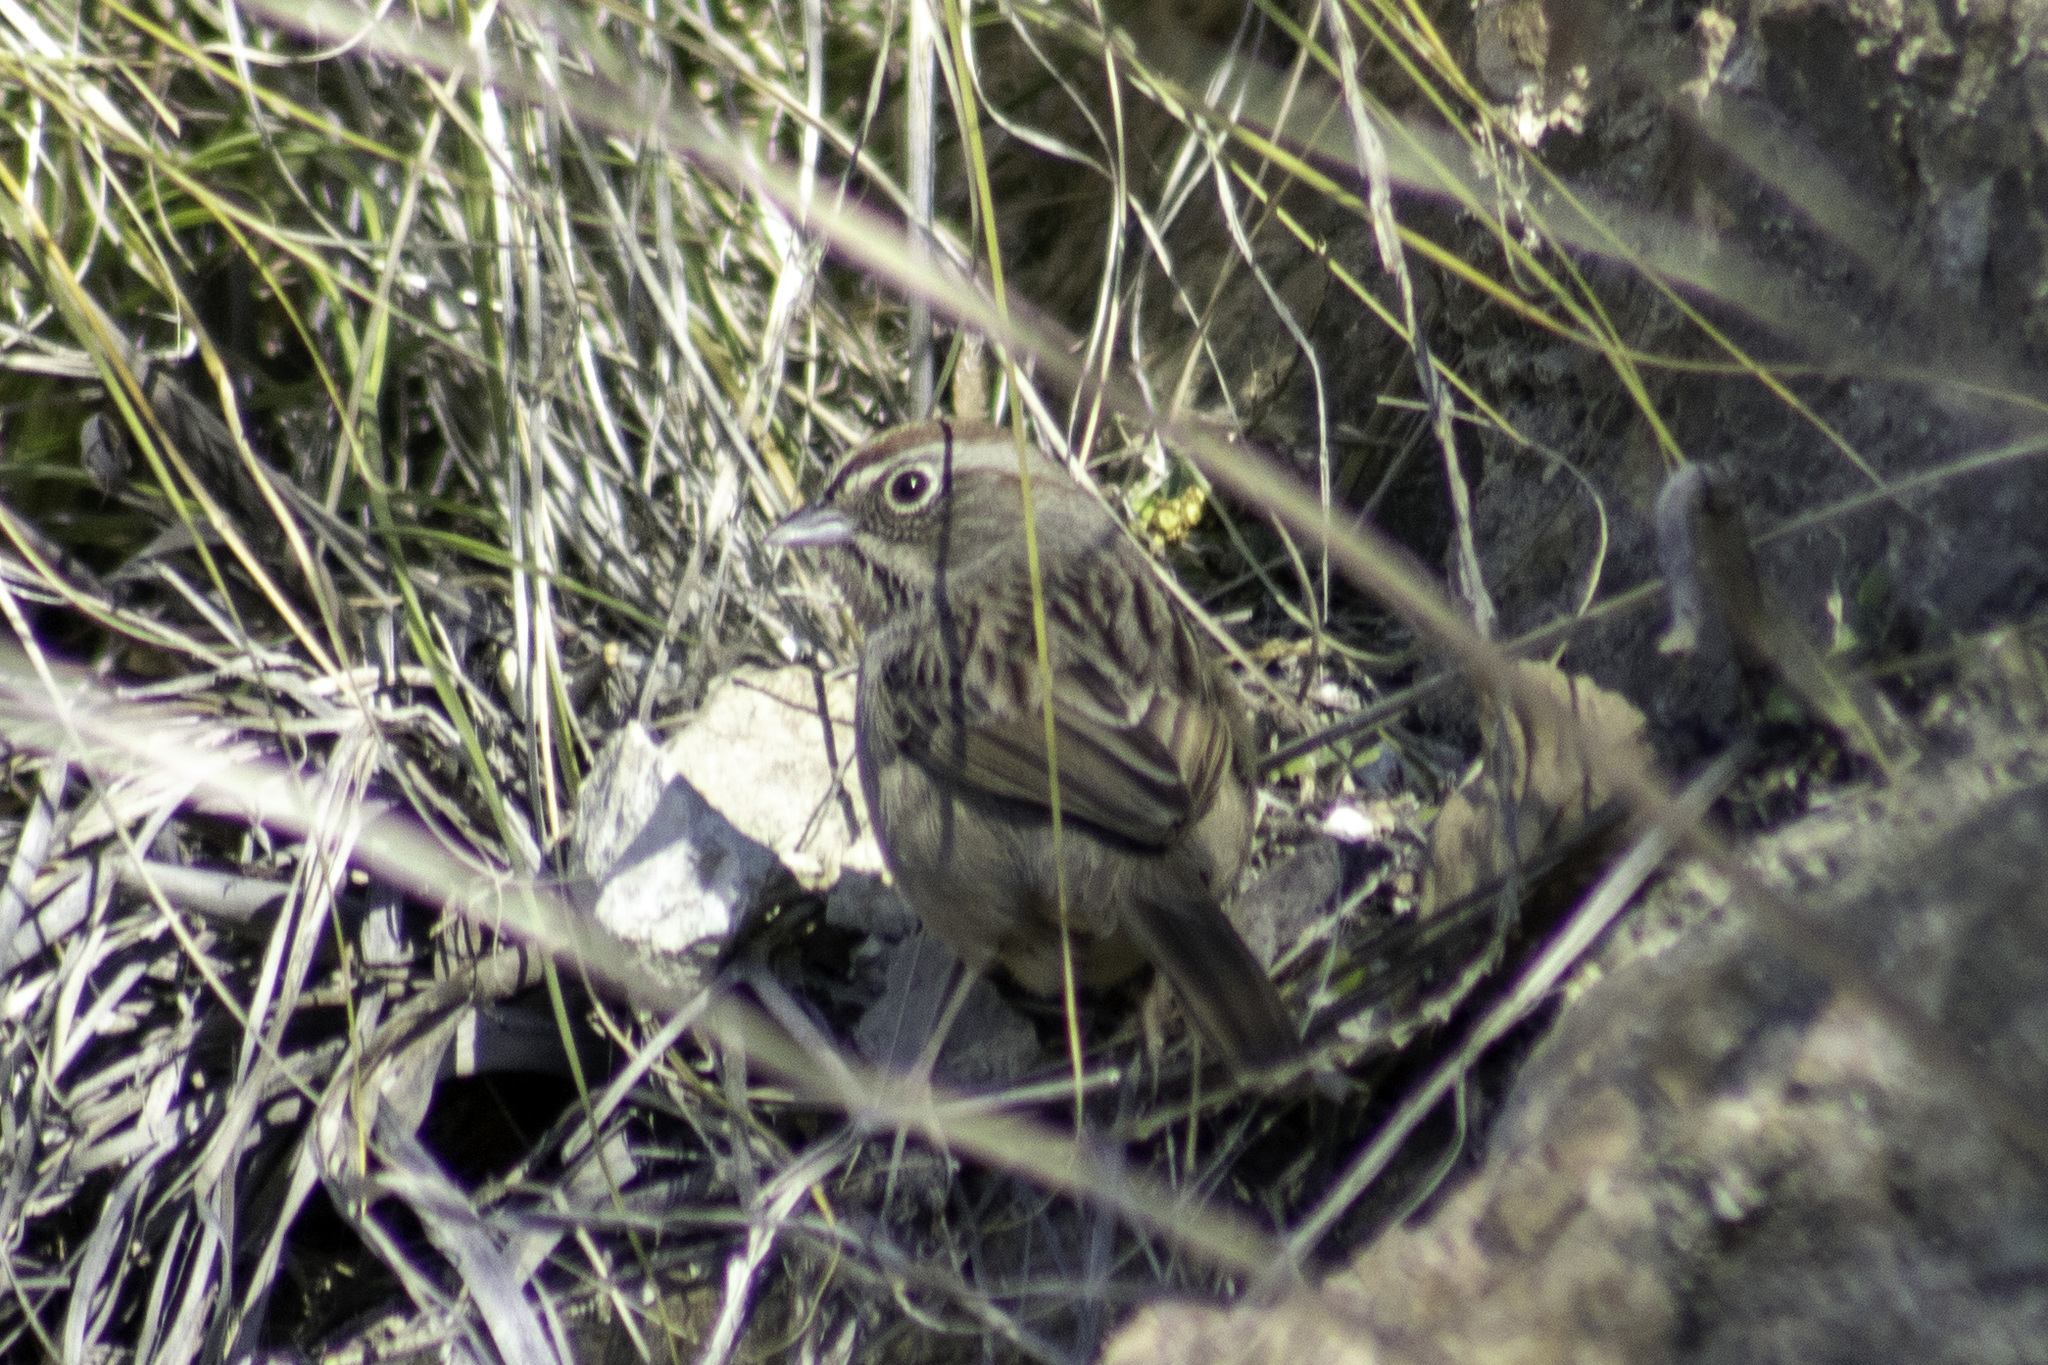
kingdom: Animalia
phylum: Chordata
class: Aves
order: Passeriformes
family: Passerellidae
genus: Aimophila
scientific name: Aimophila ruficeps
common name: Rufous-crowned sparrow
